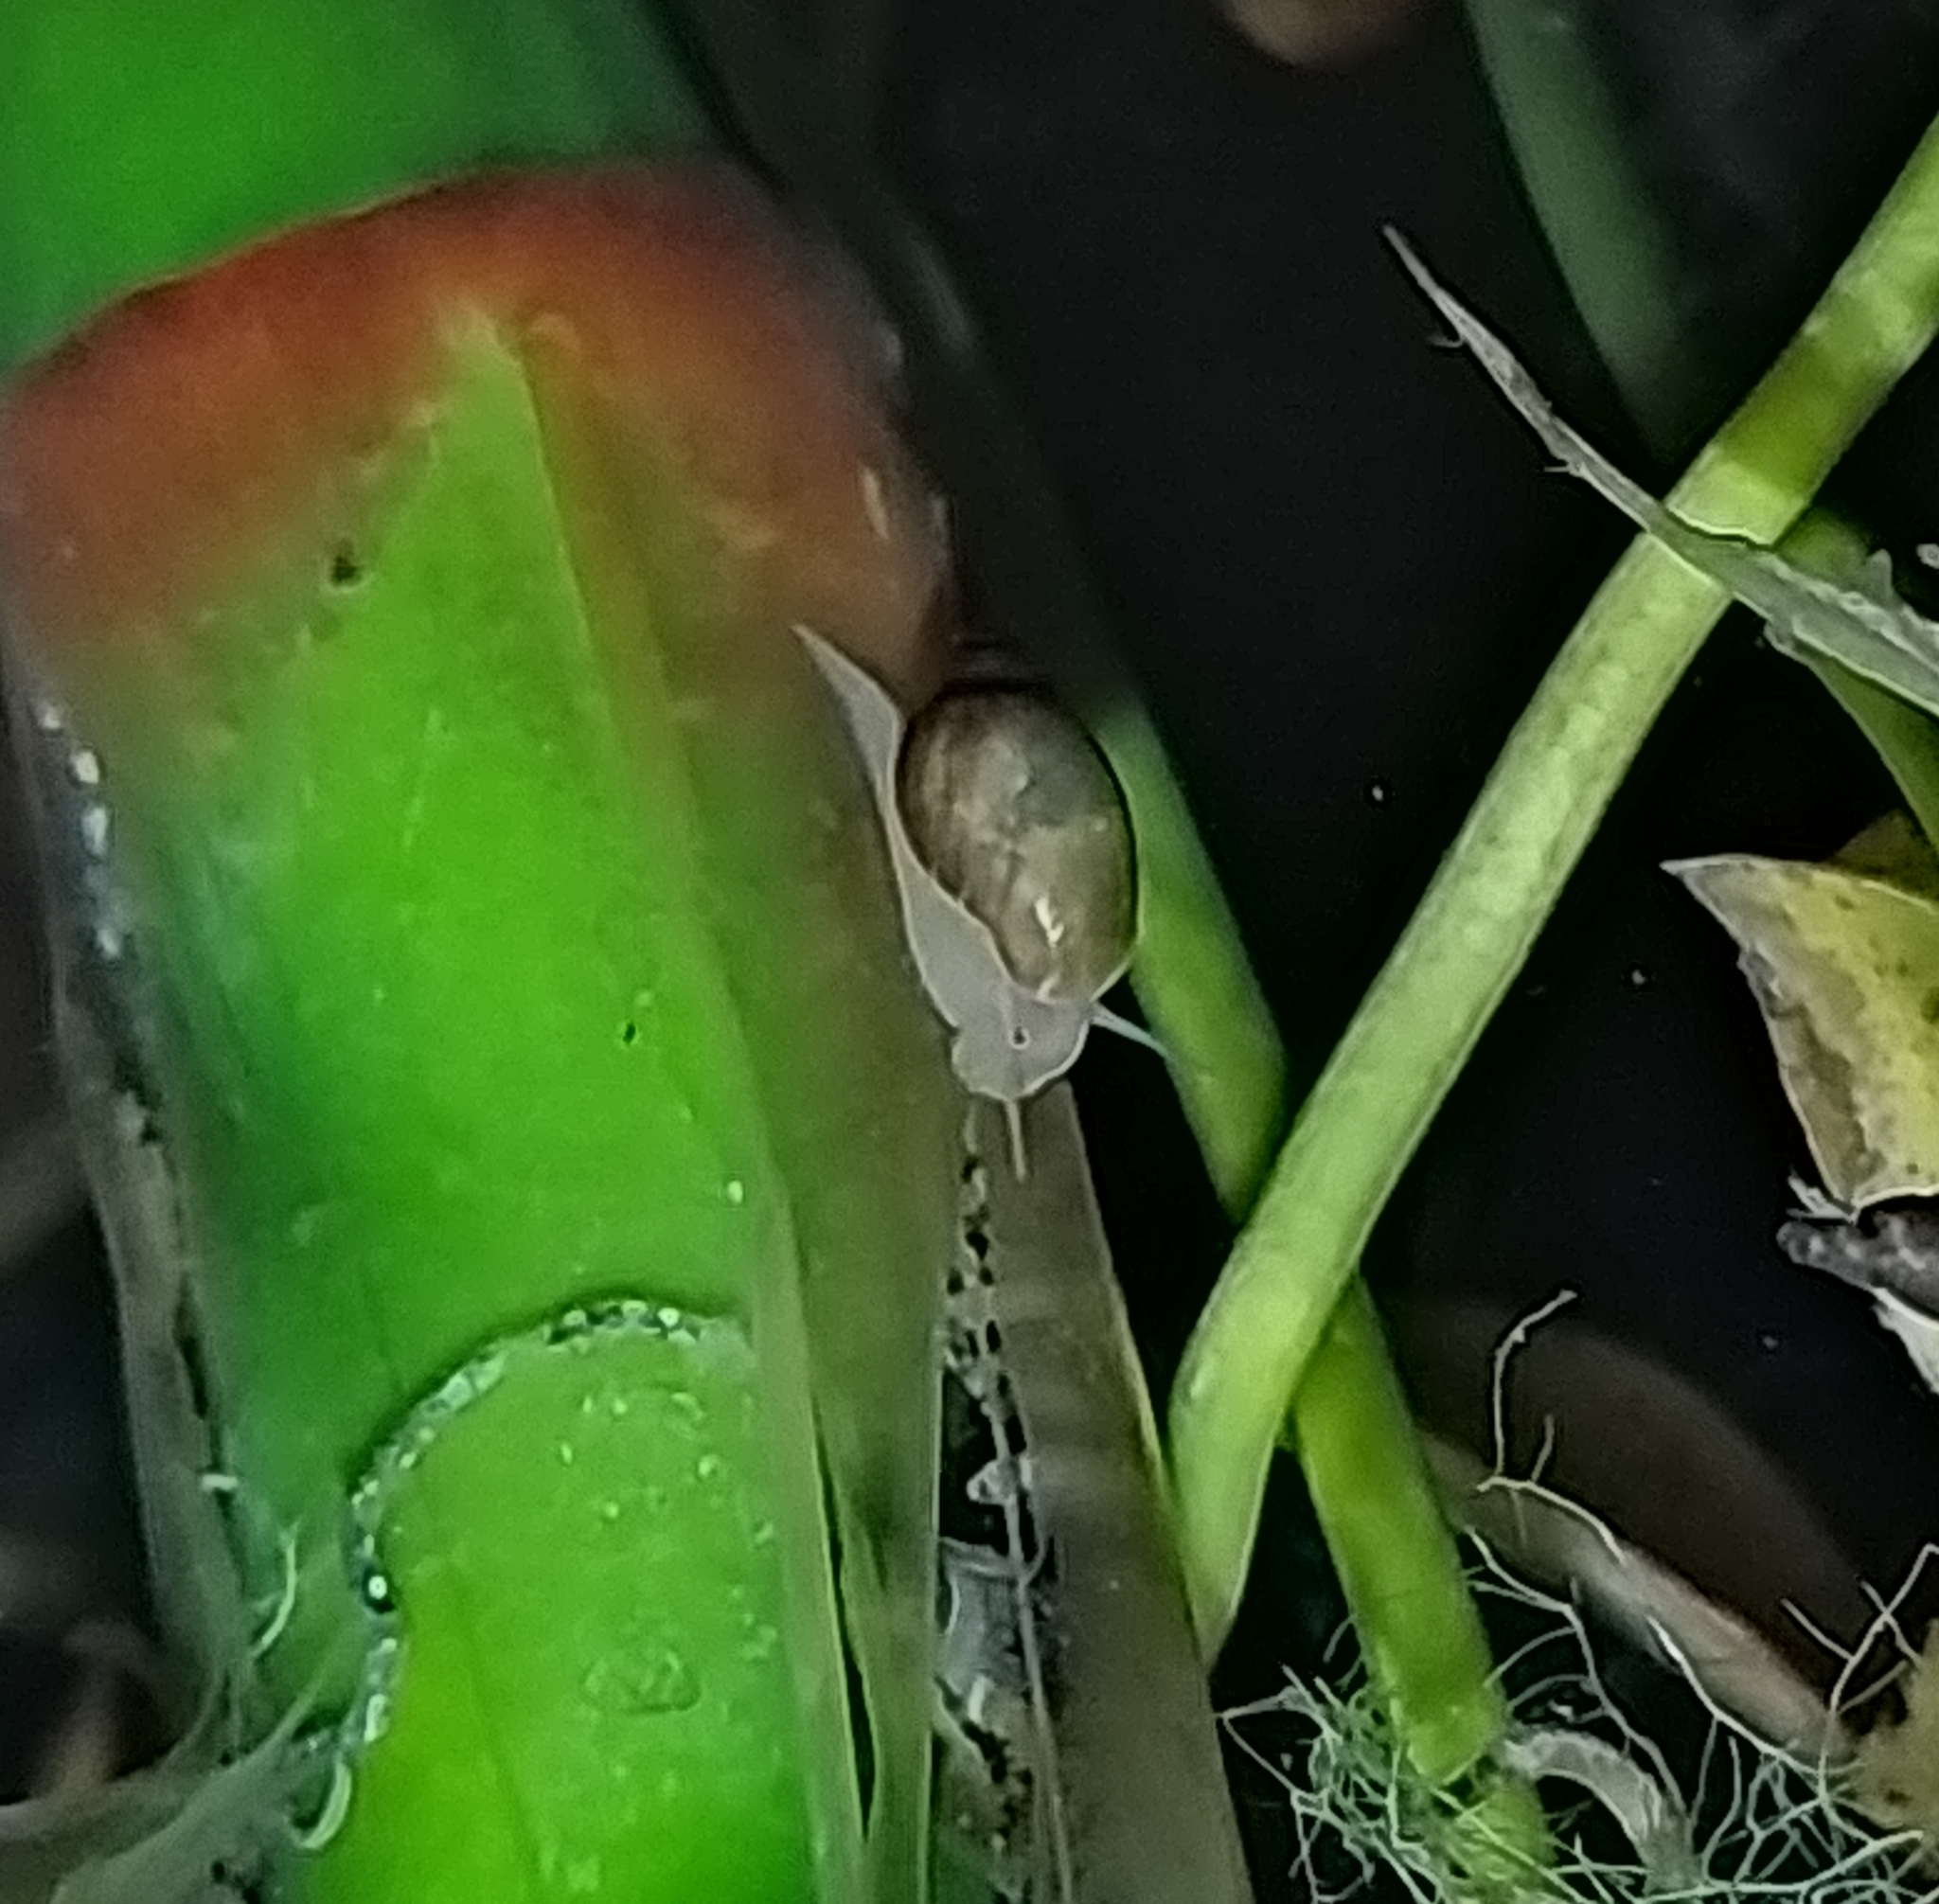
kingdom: Animalia
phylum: Mollusca
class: Gastropoda
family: Physidae
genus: Physella
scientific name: Physella acuta
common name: European physa
